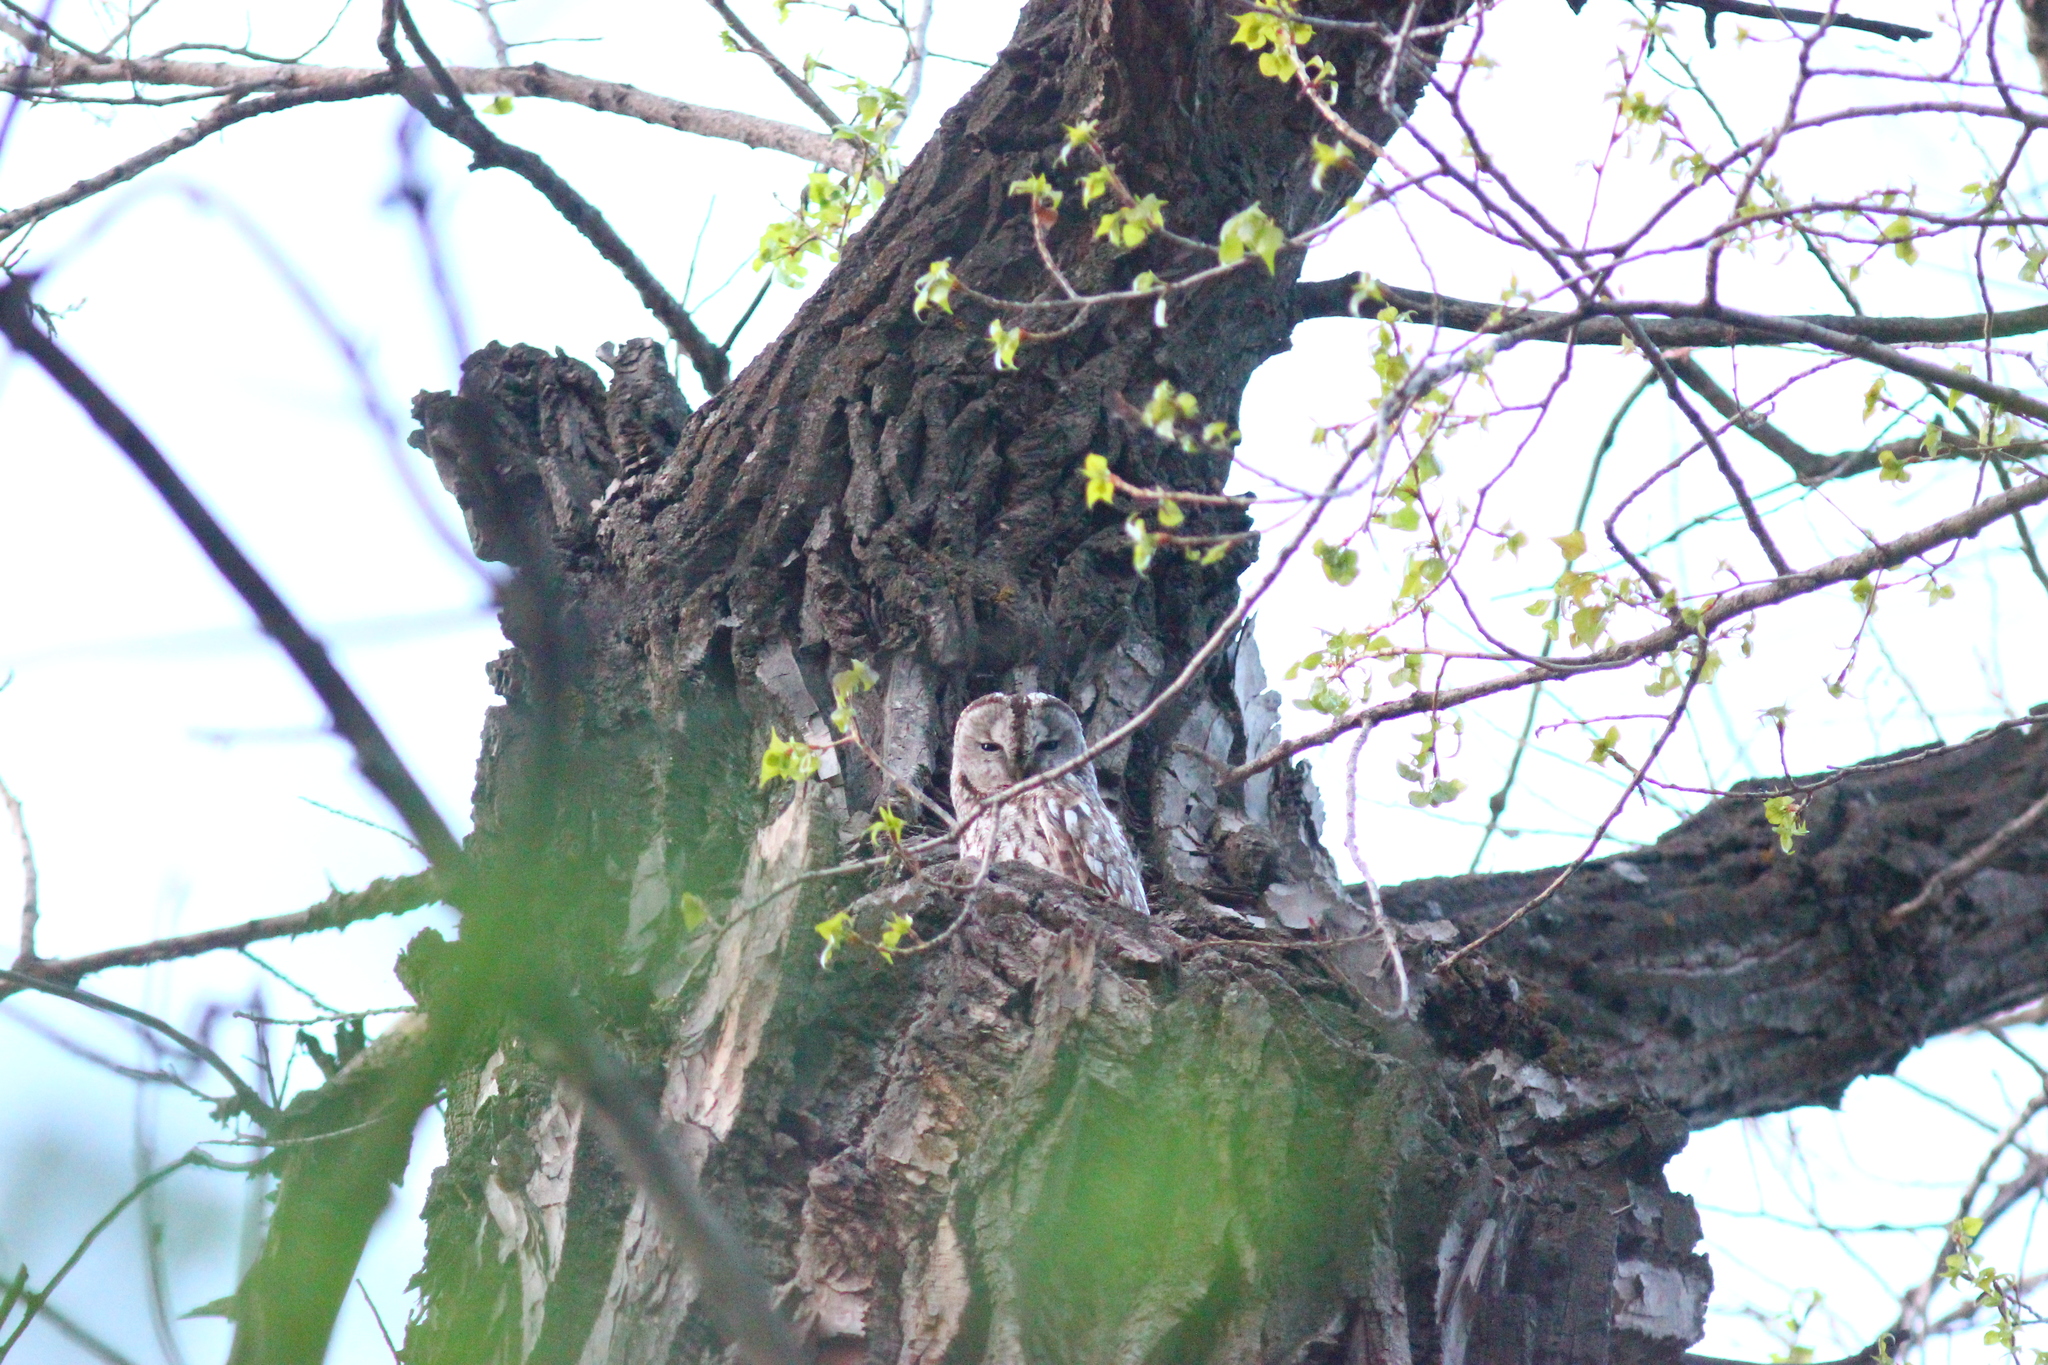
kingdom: Animalia
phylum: Chordata
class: Aves
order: Strigiformes
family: Strigidae
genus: Strix
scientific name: Strix aluco
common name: Tawny owl
